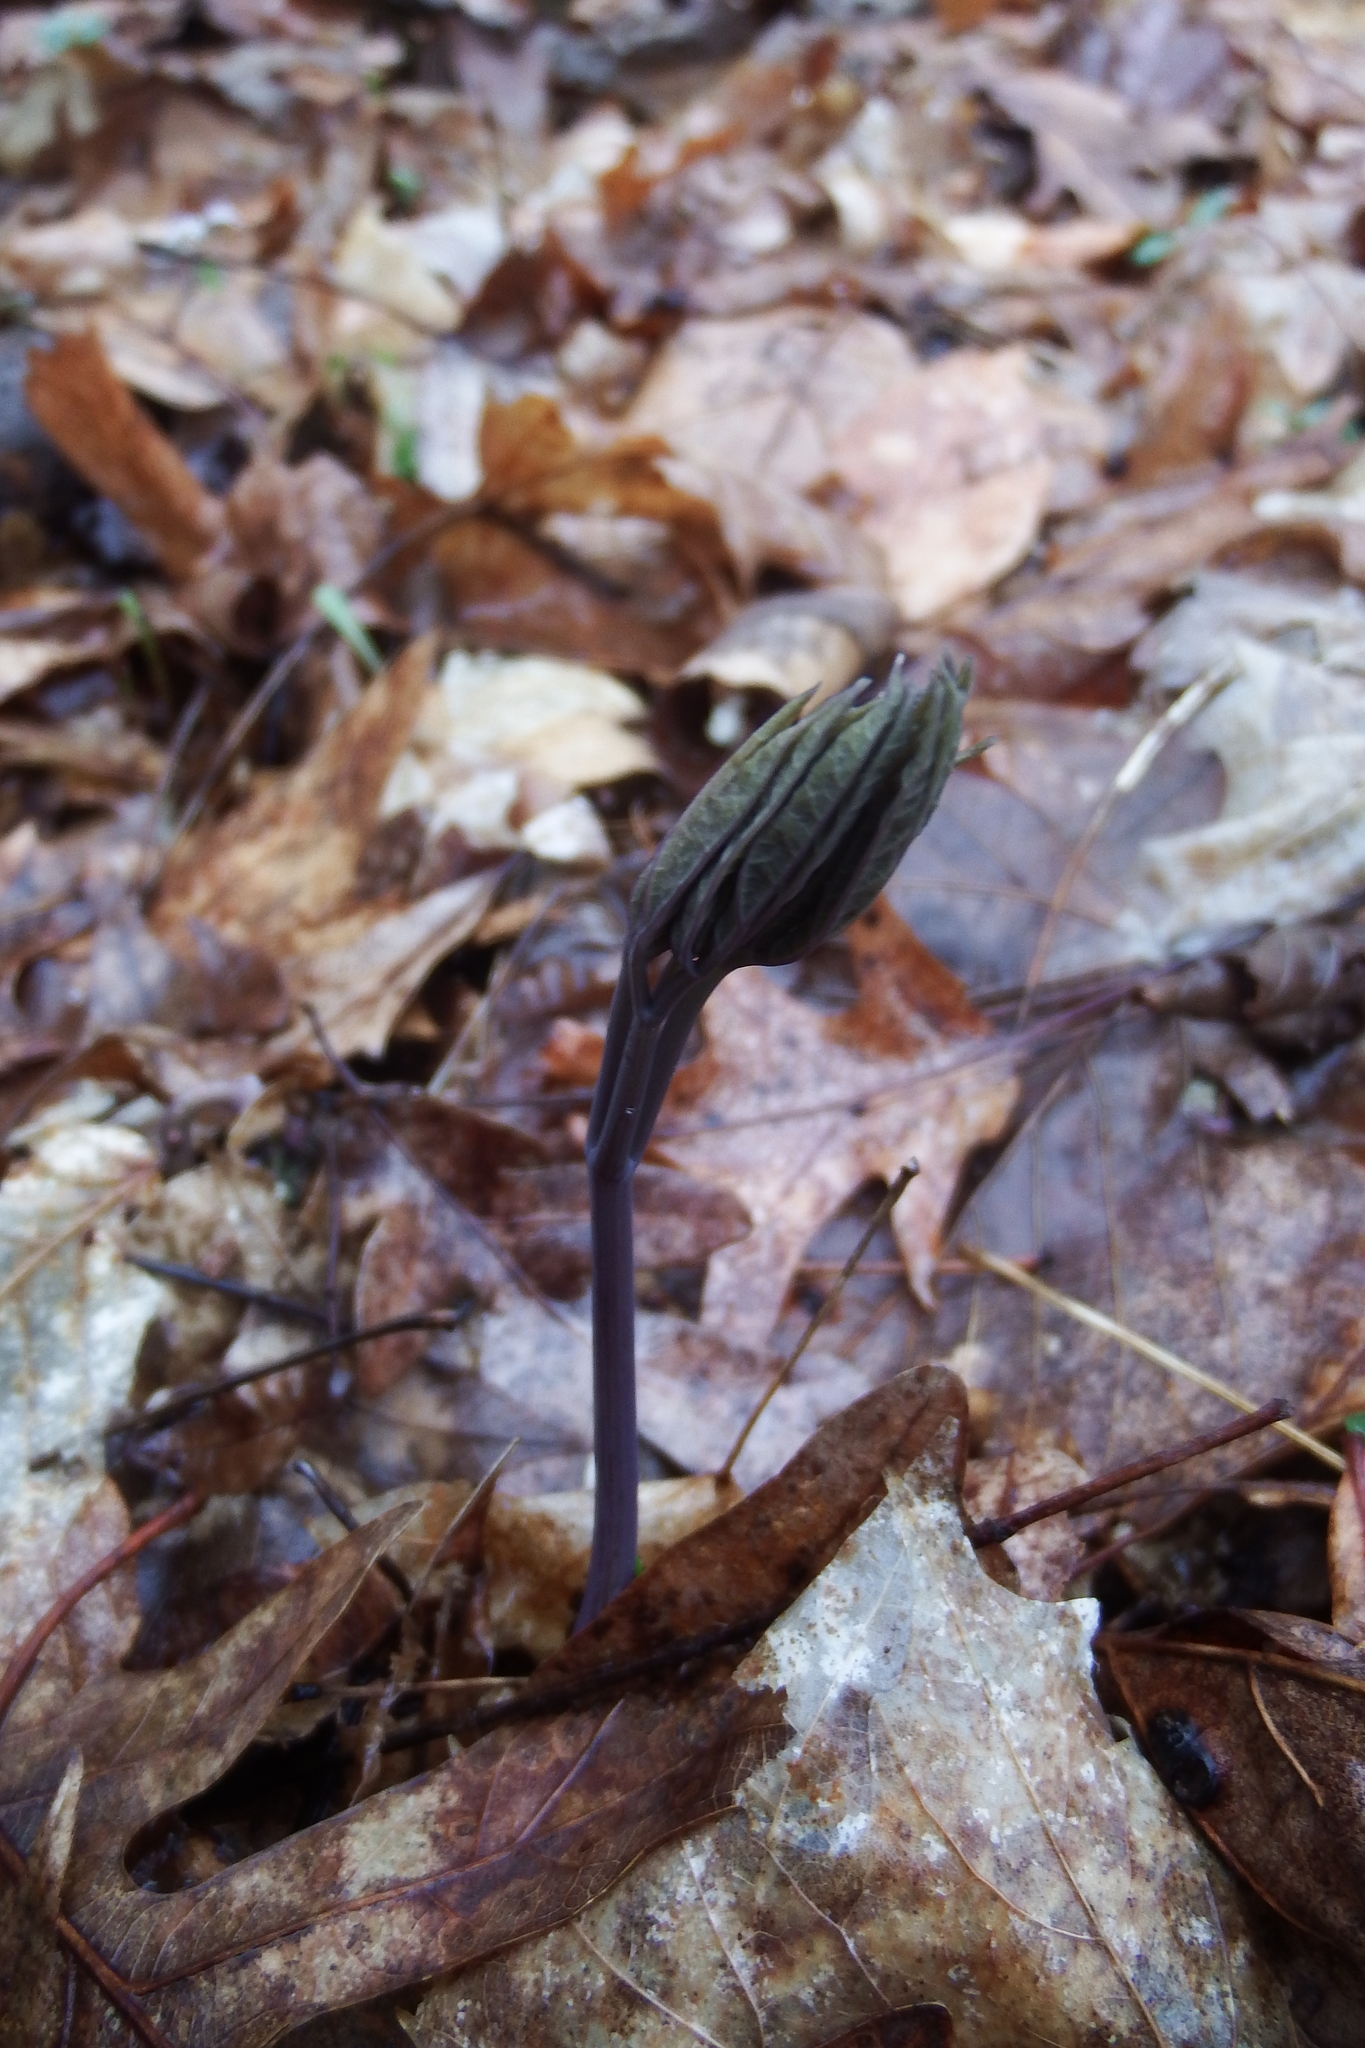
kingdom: Plantae
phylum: Tracheophyta
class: Magnoliopsida
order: Ranunculales
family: Berberidaceae
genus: Caulophyllum
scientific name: Caulophyllum giganteum
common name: Blue cohosh
